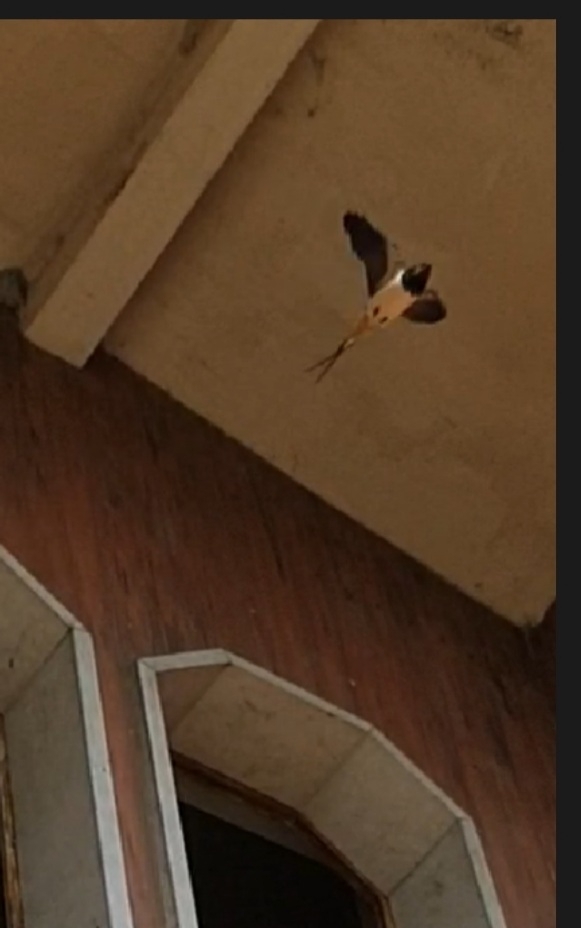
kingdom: Animalia
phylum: Chordata
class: Aves
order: Passeriformes
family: Hirundinidae
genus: Hirundo
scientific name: Hirundo rustica
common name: Barn swallow
